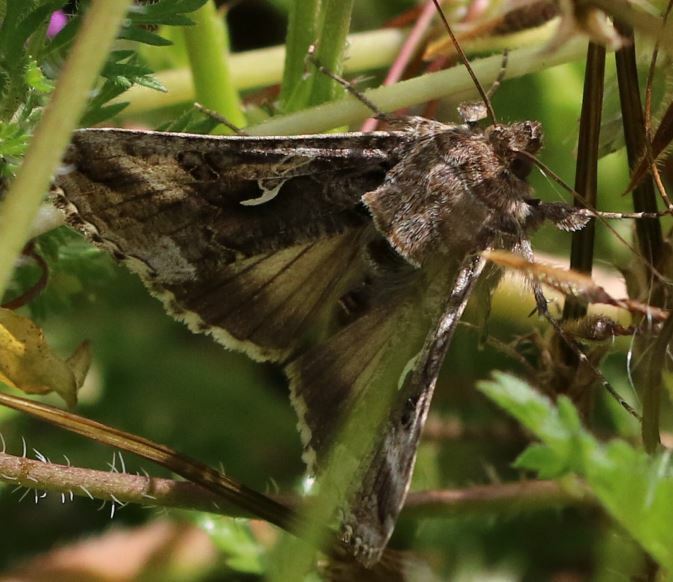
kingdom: Animalia
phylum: Arthropoda
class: Insecta
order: Lepidoptera
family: Noctuidae
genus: Autographa
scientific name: Autographa gamma
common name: Silver y
